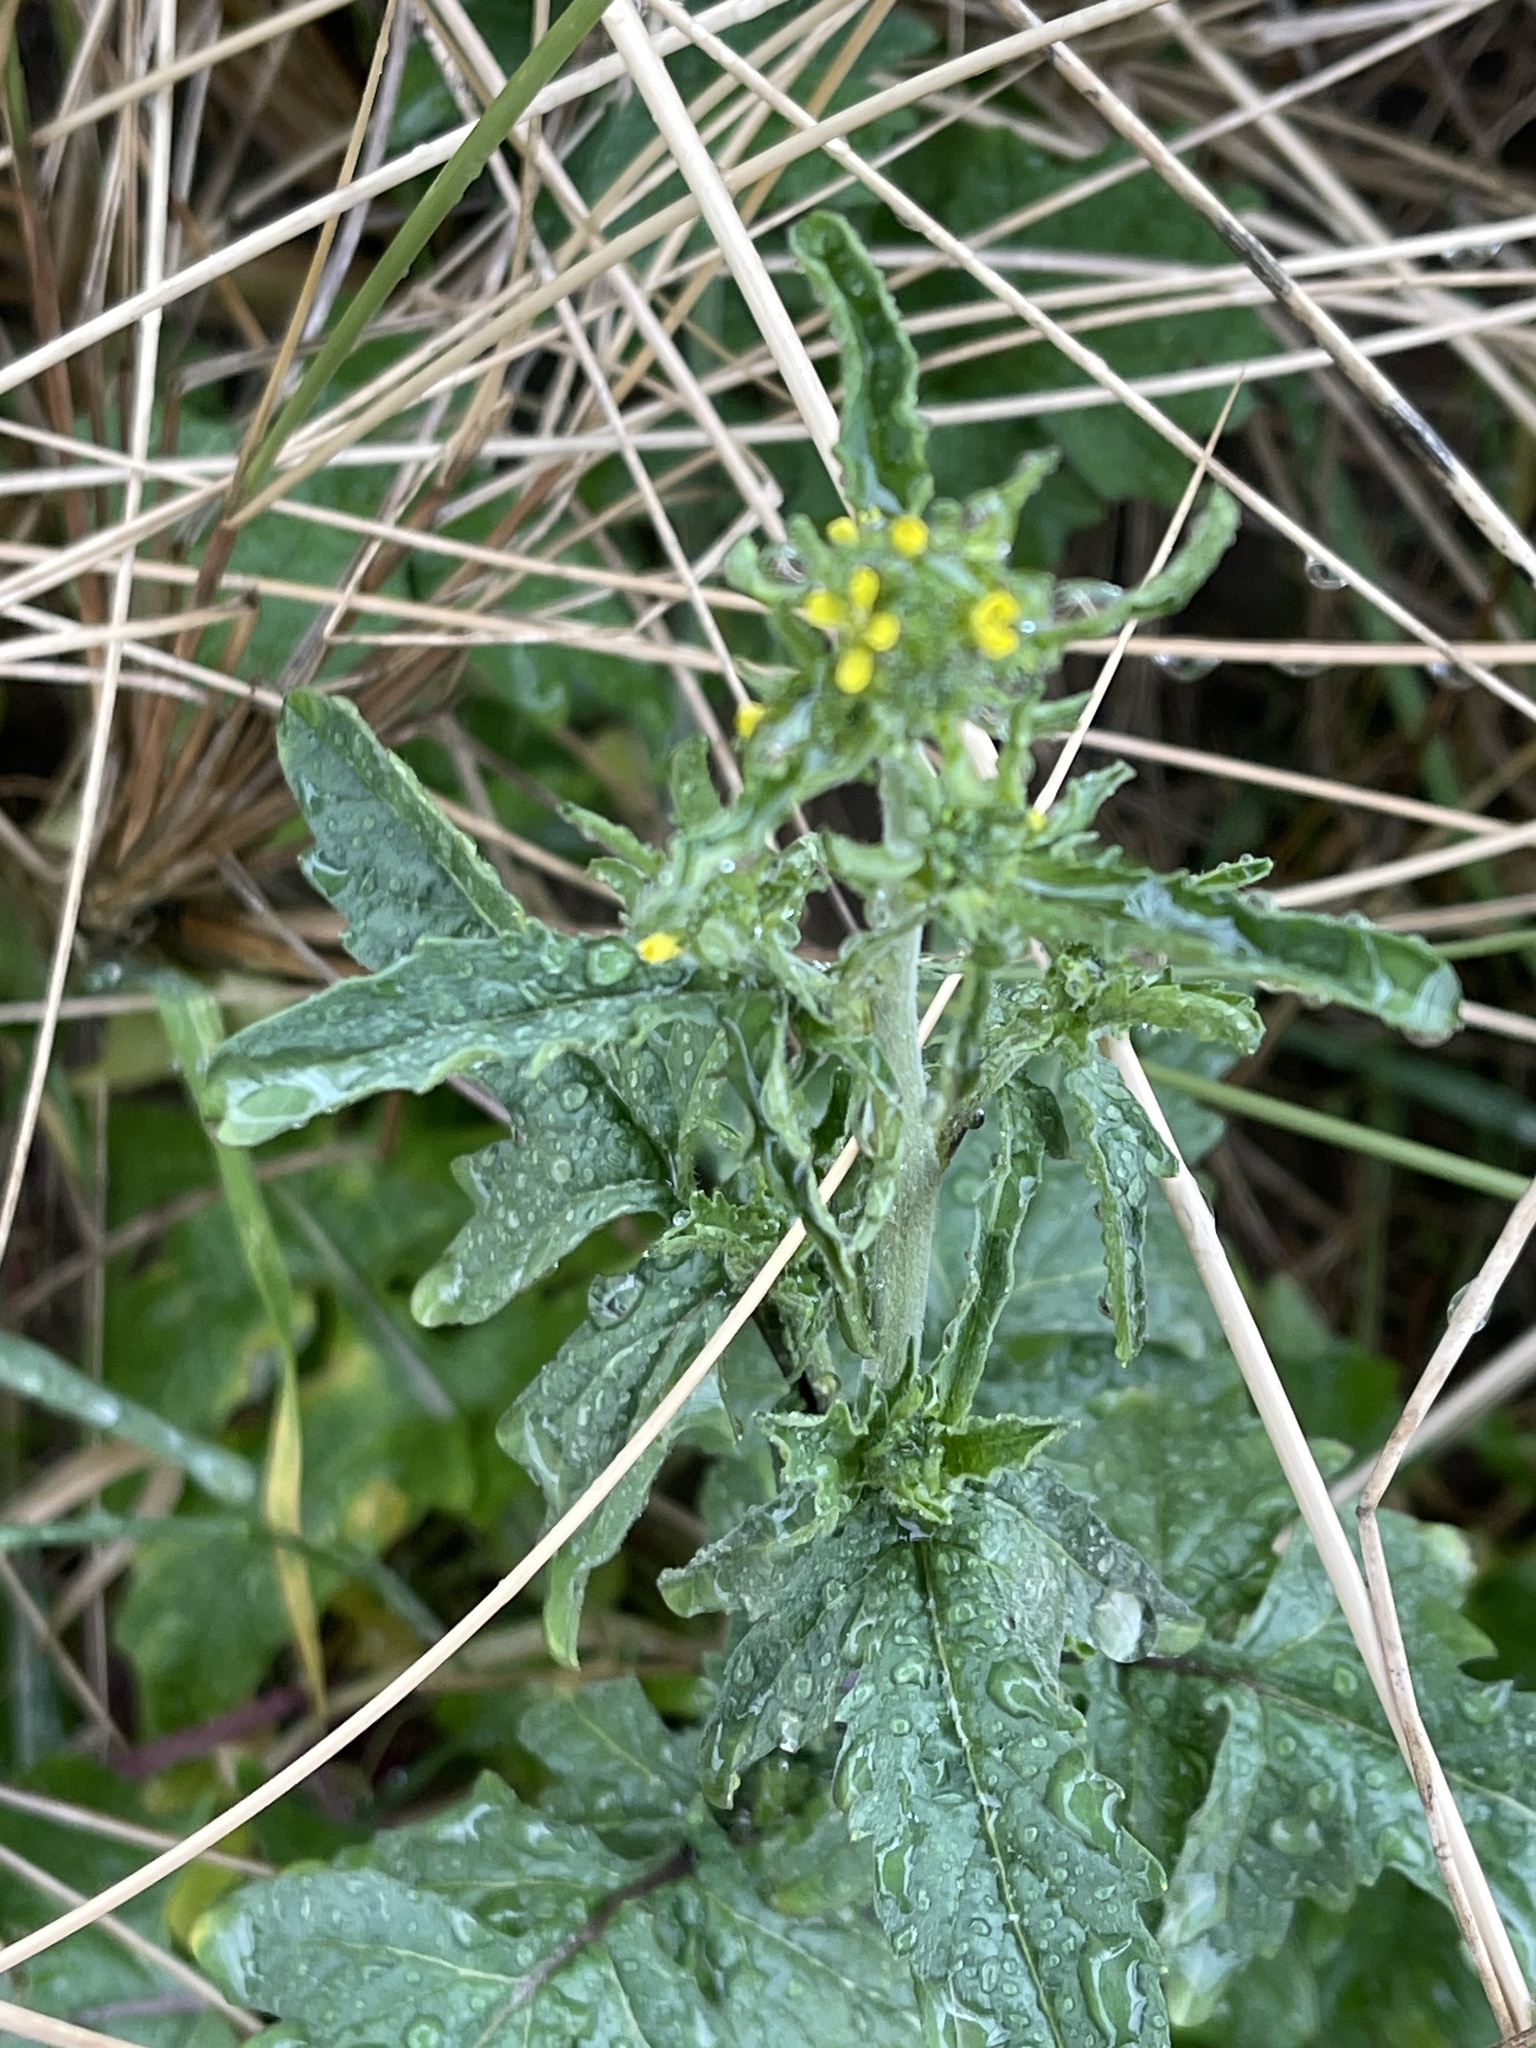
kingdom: Plantae
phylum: Tracheophyta
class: Magnoliopsida
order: Brassicales
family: Brassicaceae
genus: Sisymbrium
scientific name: Sisymbrium officinale
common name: Hedge mustard
